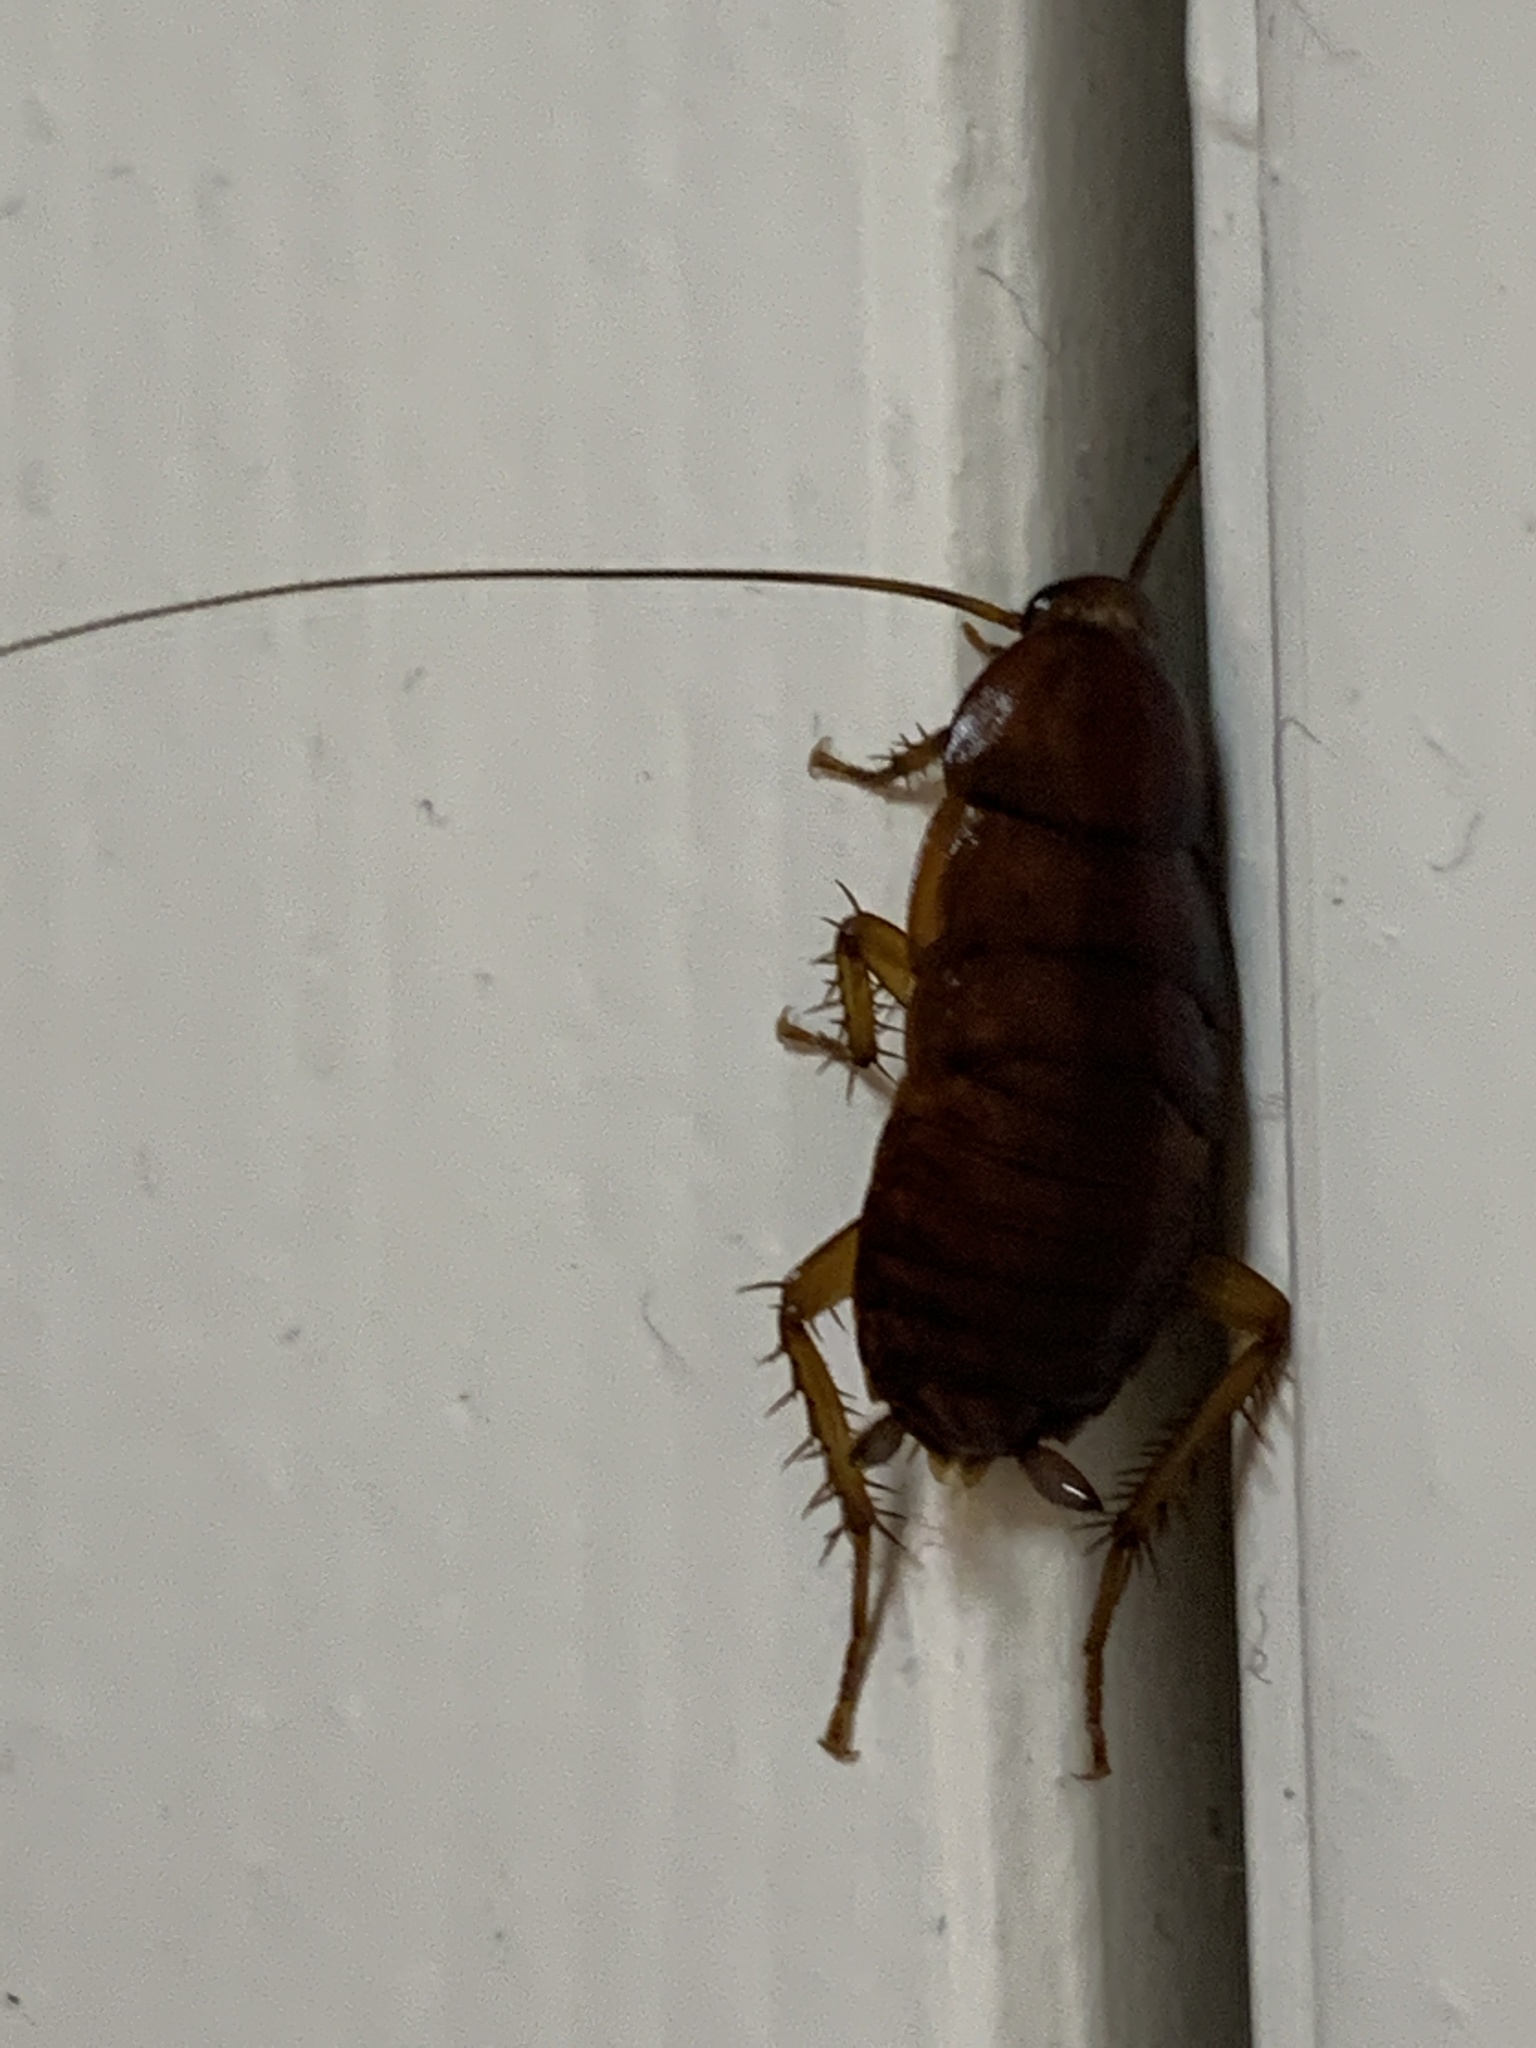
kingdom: Animalia
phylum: Arthropoda
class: Insecta
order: Blattodea
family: Blattidae
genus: Periplaneta
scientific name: Periplaneta fuliginosa
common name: Smokeybrown cockroad
